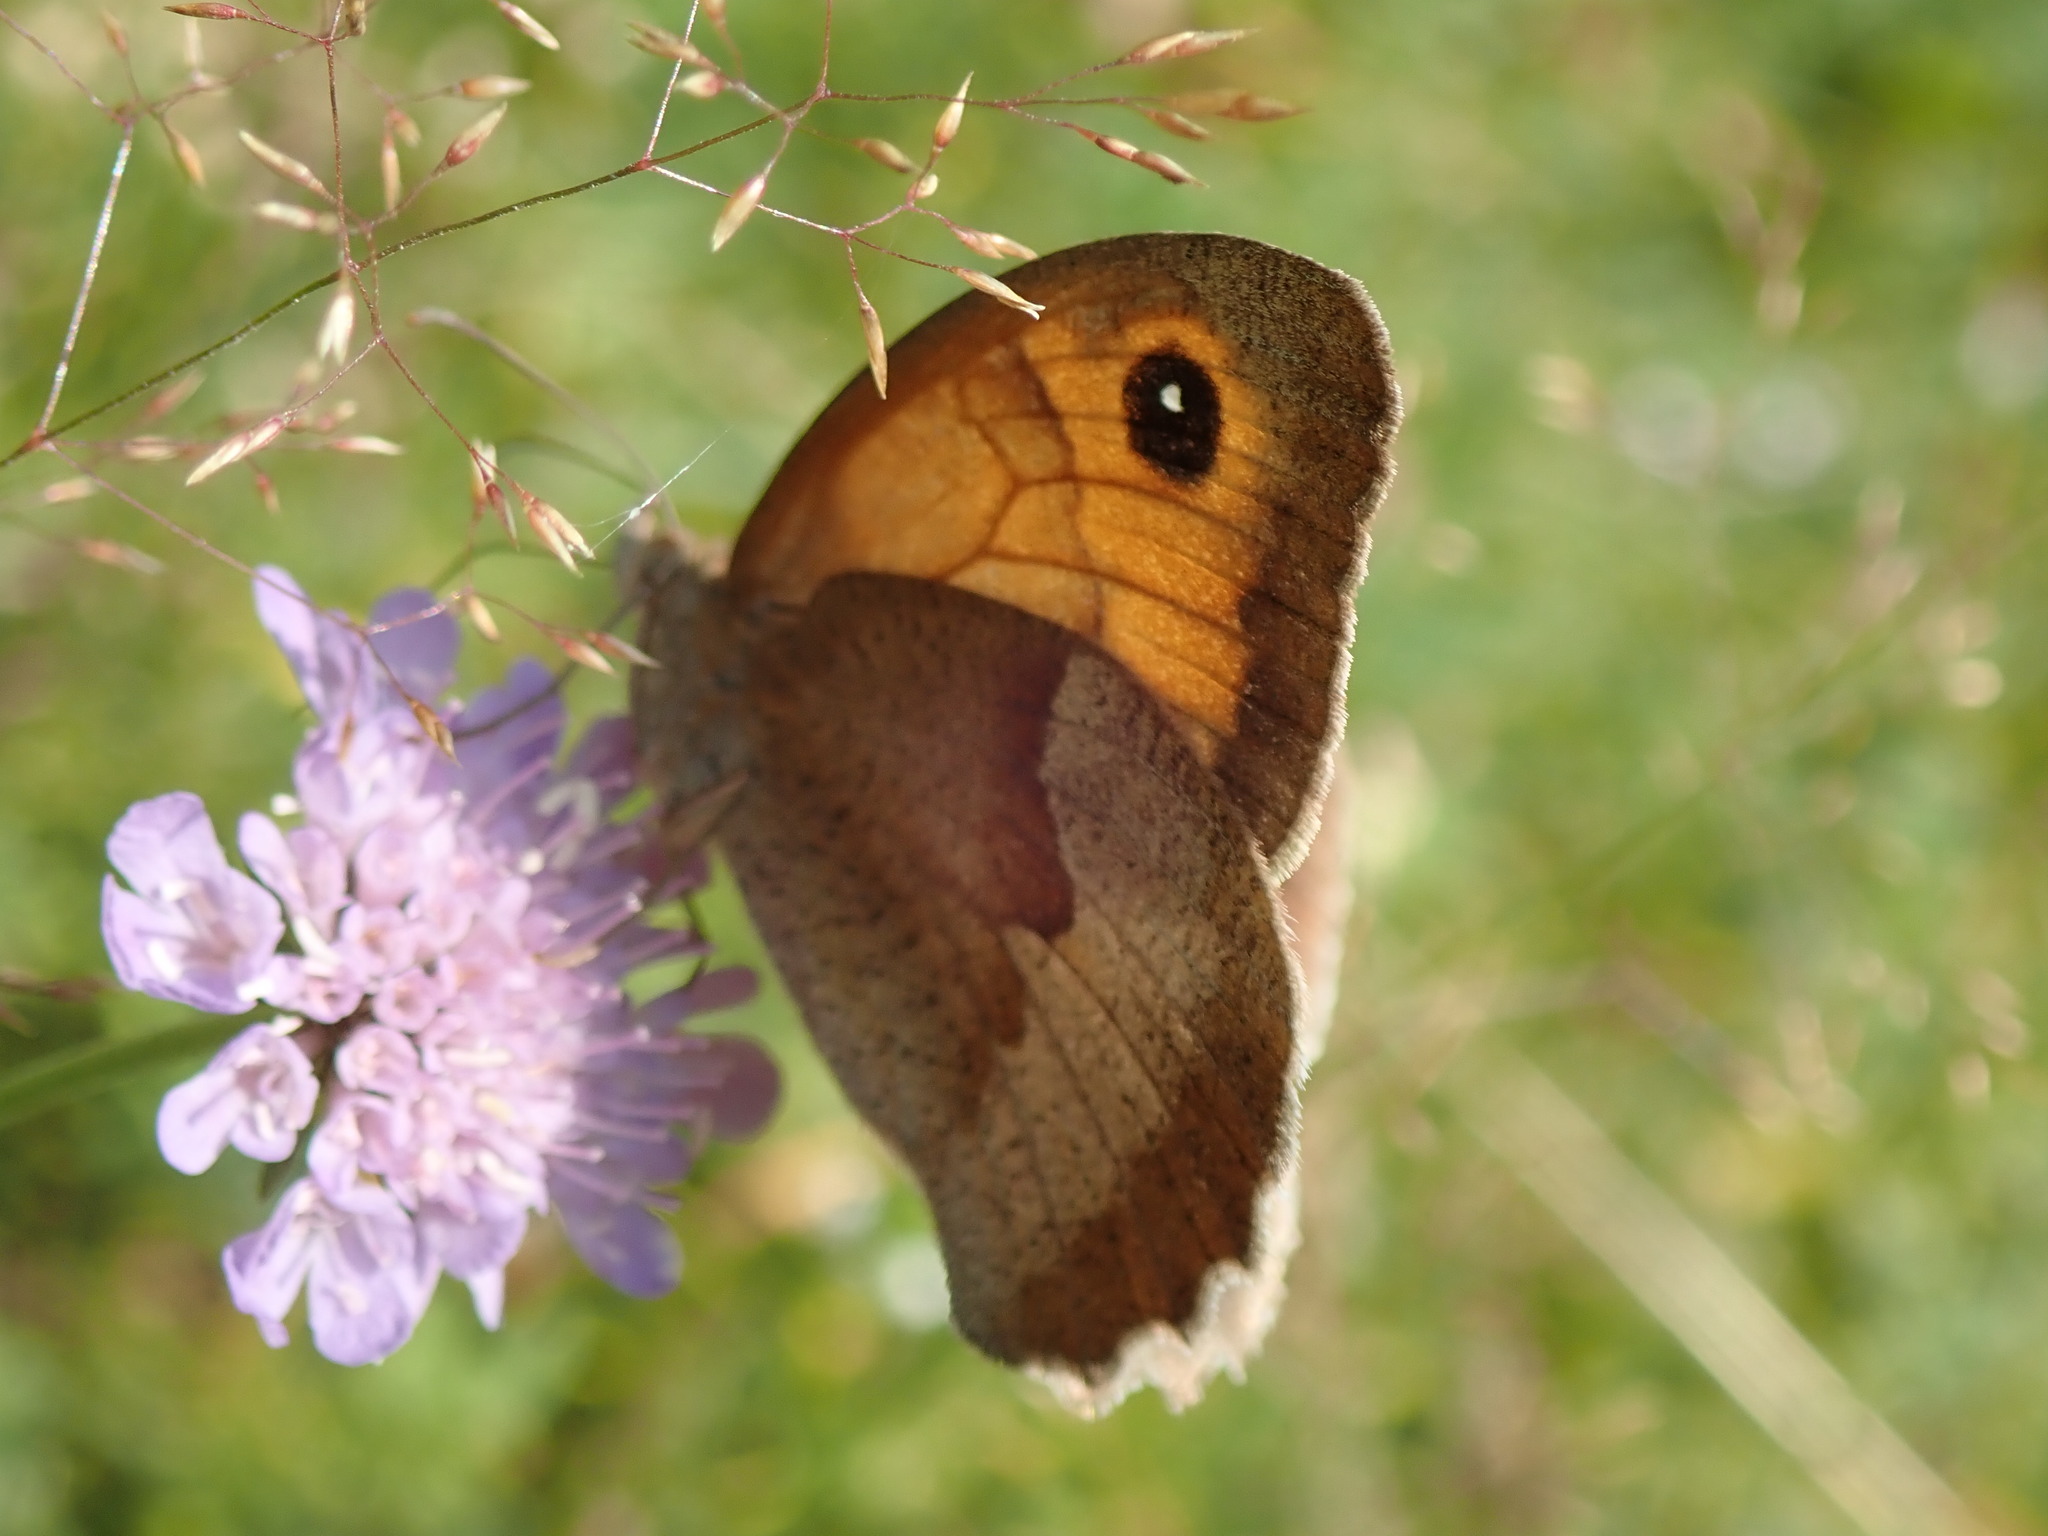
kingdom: Animalia
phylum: Arthropoda
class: Insecta
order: Lepidoptera
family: Nymphalidae
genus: Maniola
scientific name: Maniola jurtina
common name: Meadow brown
